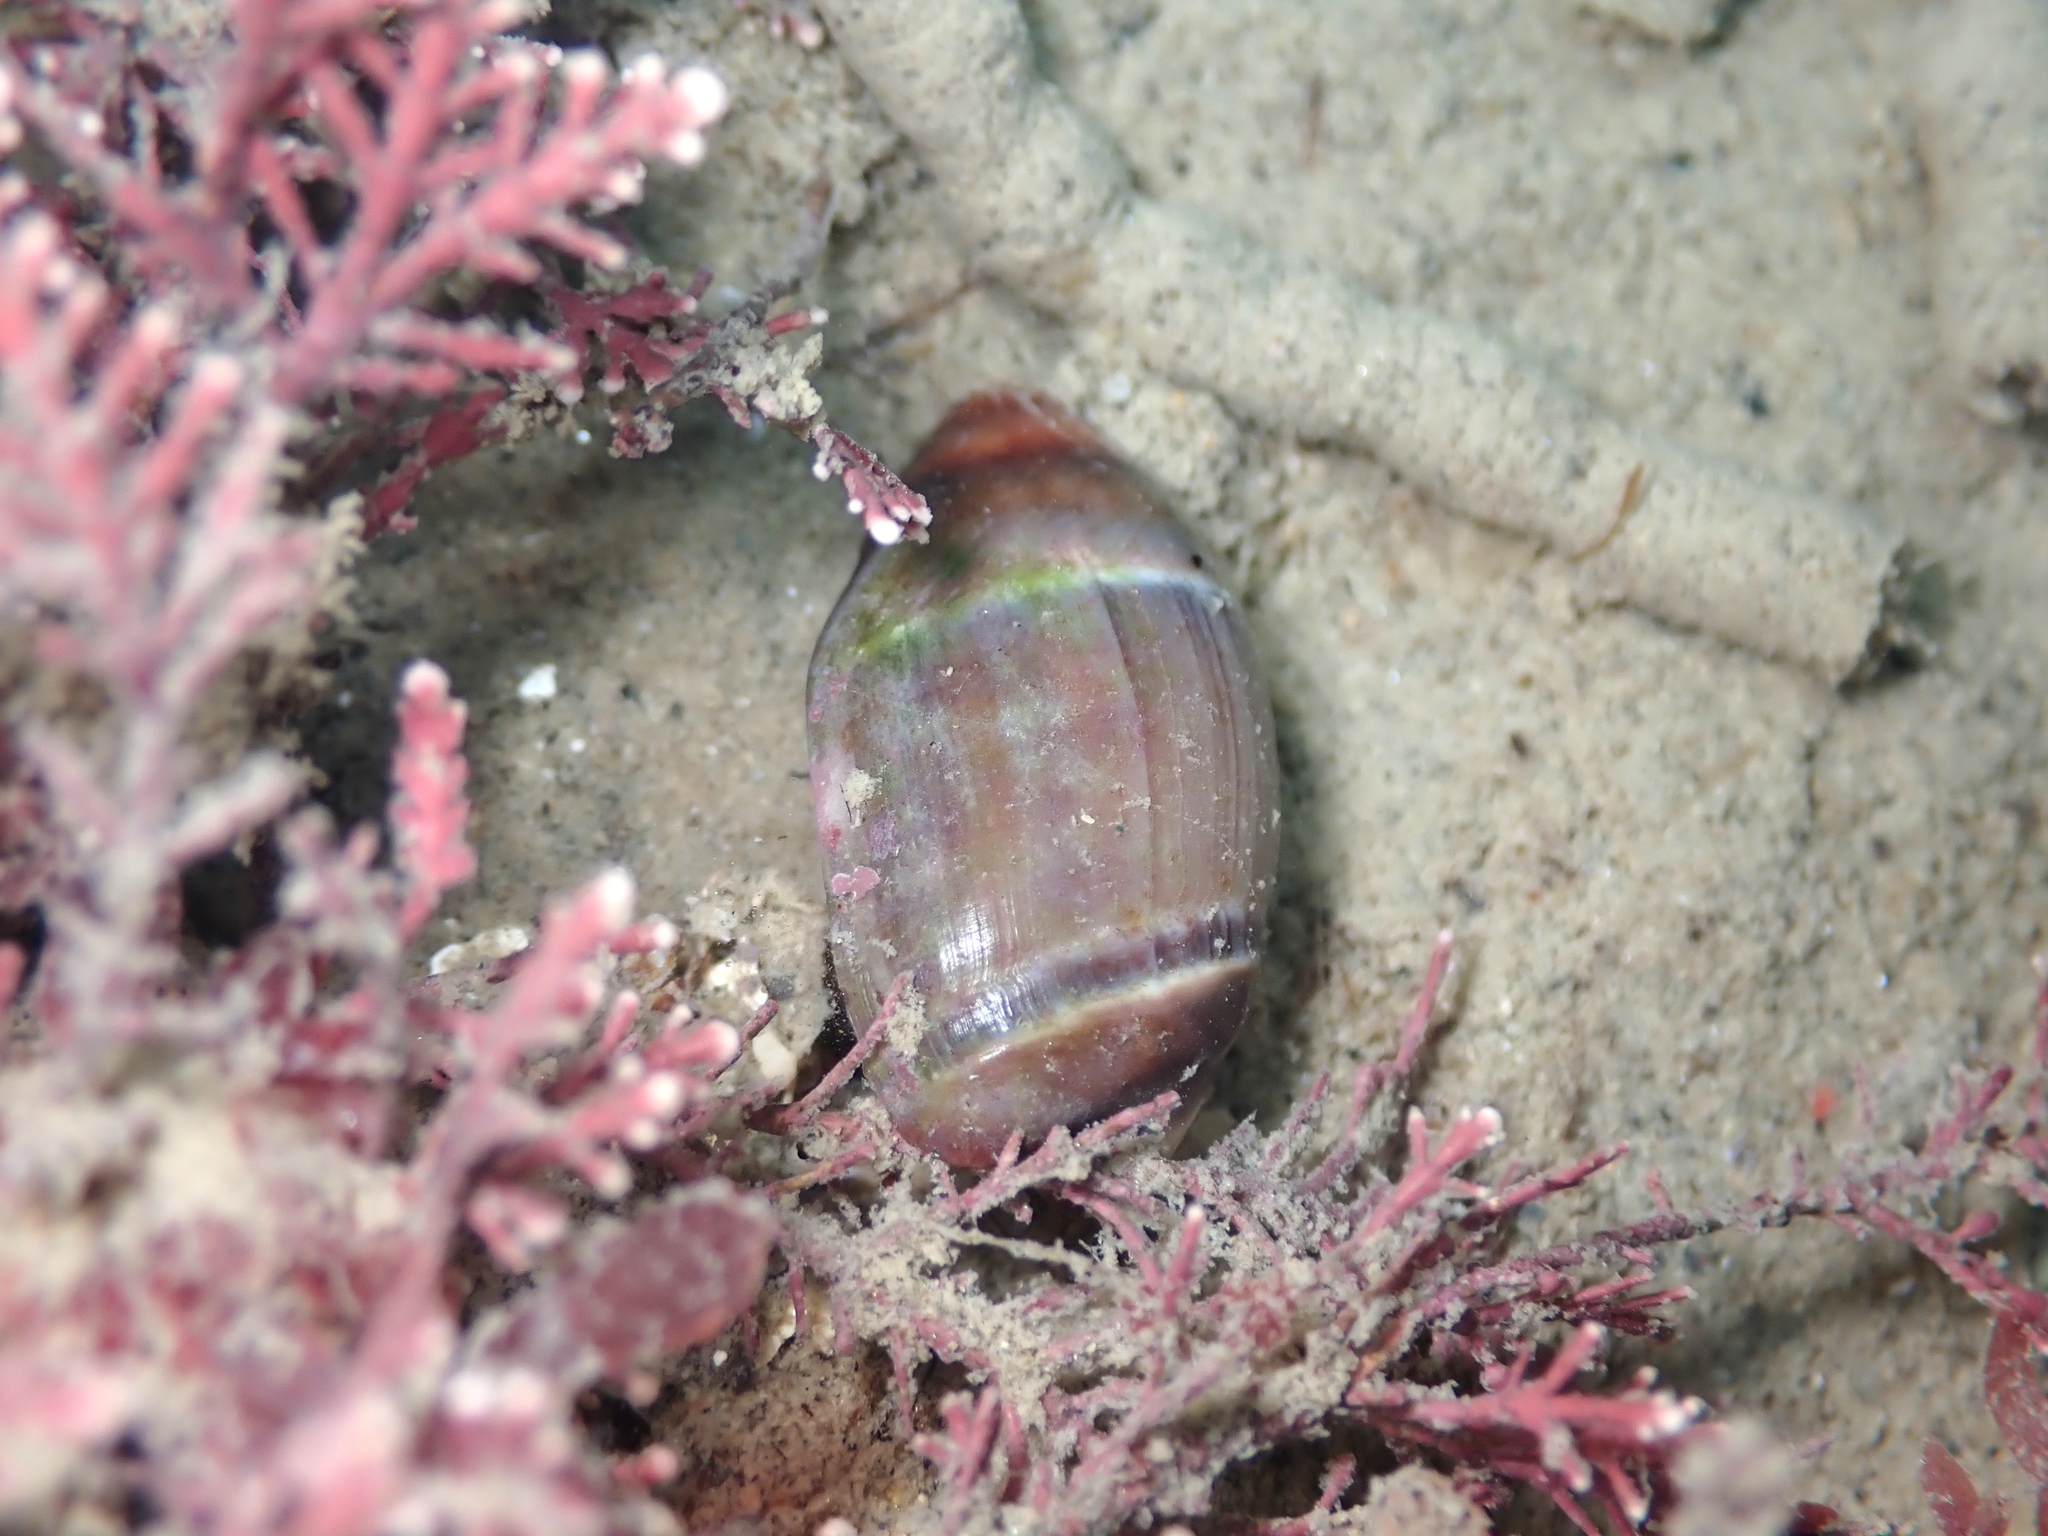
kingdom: Animalia
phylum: Mollusca
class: Gastropoda
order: Neogastropoda
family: Ancillariidae
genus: Amalda
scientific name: Amalda australis
